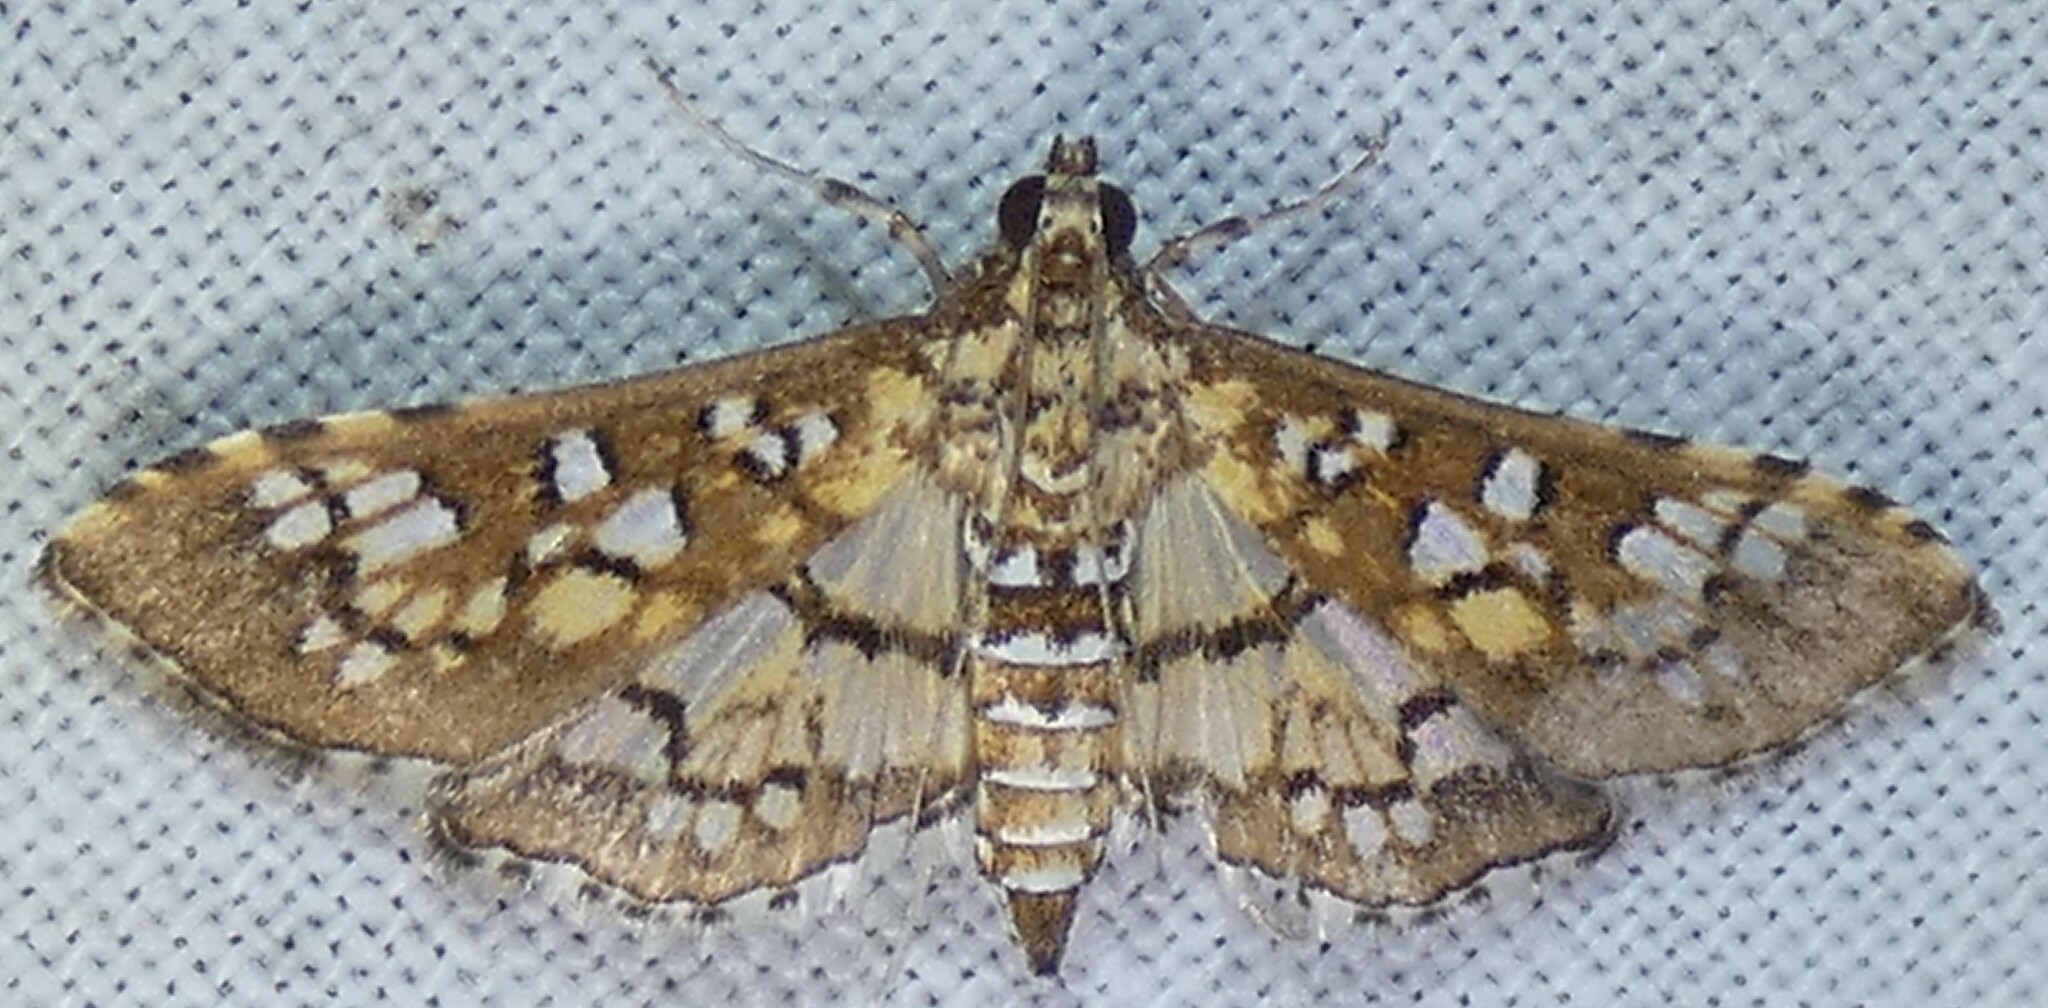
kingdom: Animalia
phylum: Arthropoda
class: Insecta
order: Lepidoptera
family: Crambidae
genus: Samea
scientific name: Samea ecclesialis
